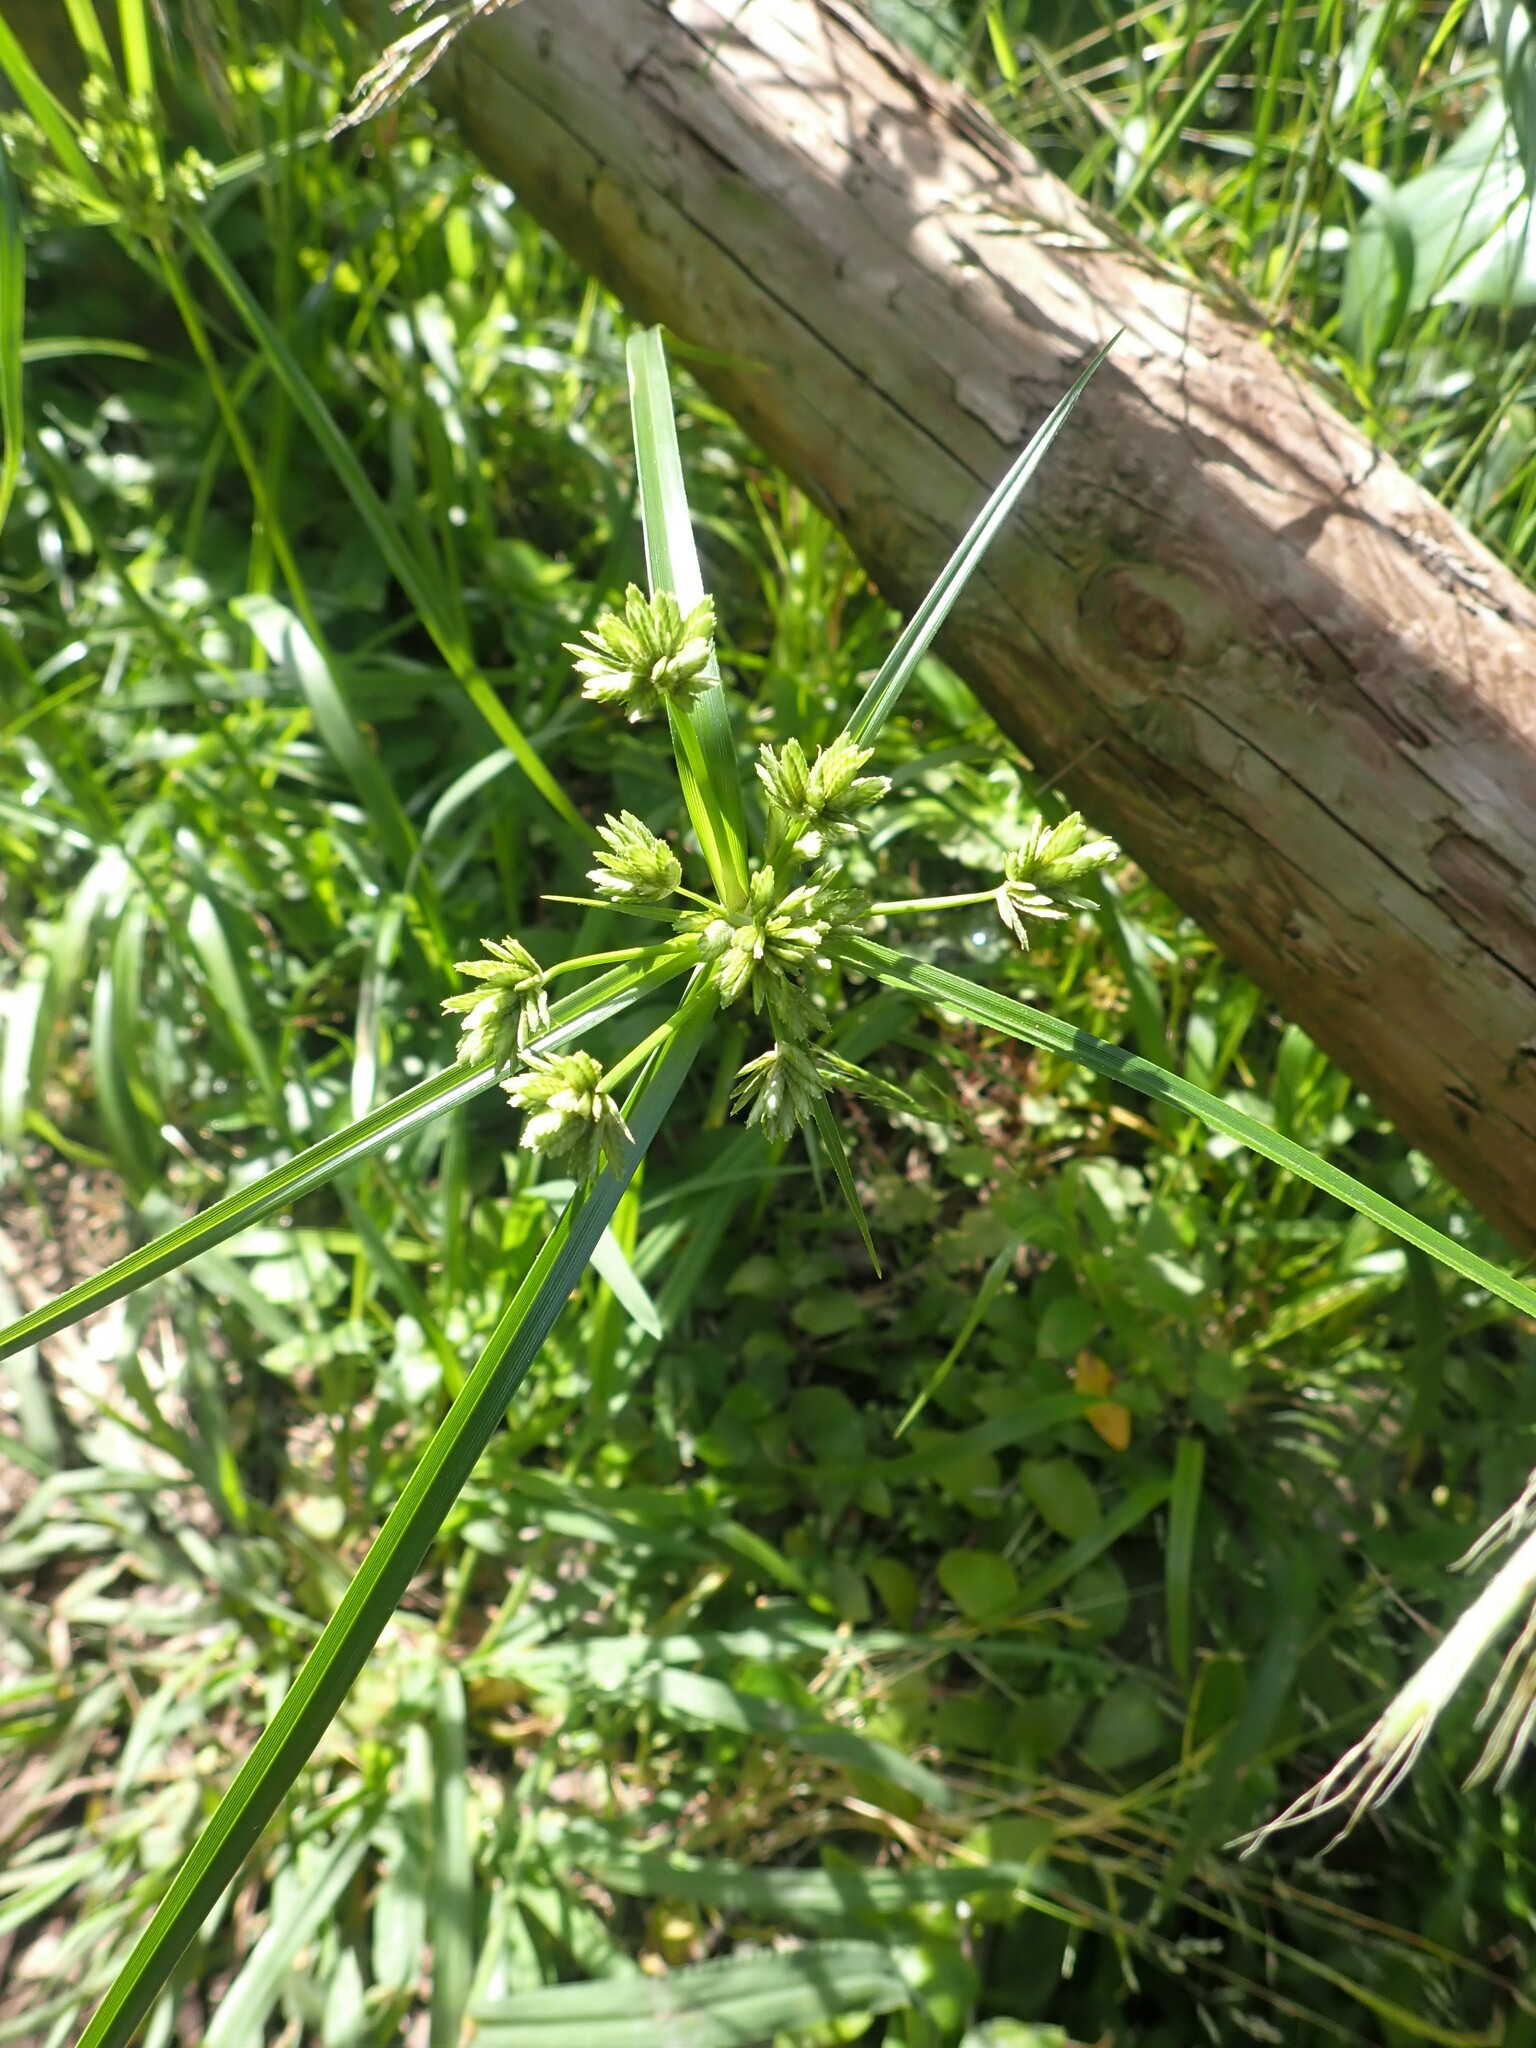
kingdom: Plantae
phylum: Tracheophyta
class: Liliopsida
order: Poales
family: Cyperaceae
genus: Cyperus
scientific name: Cyperus eragrostis
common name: Tall flatsedge
